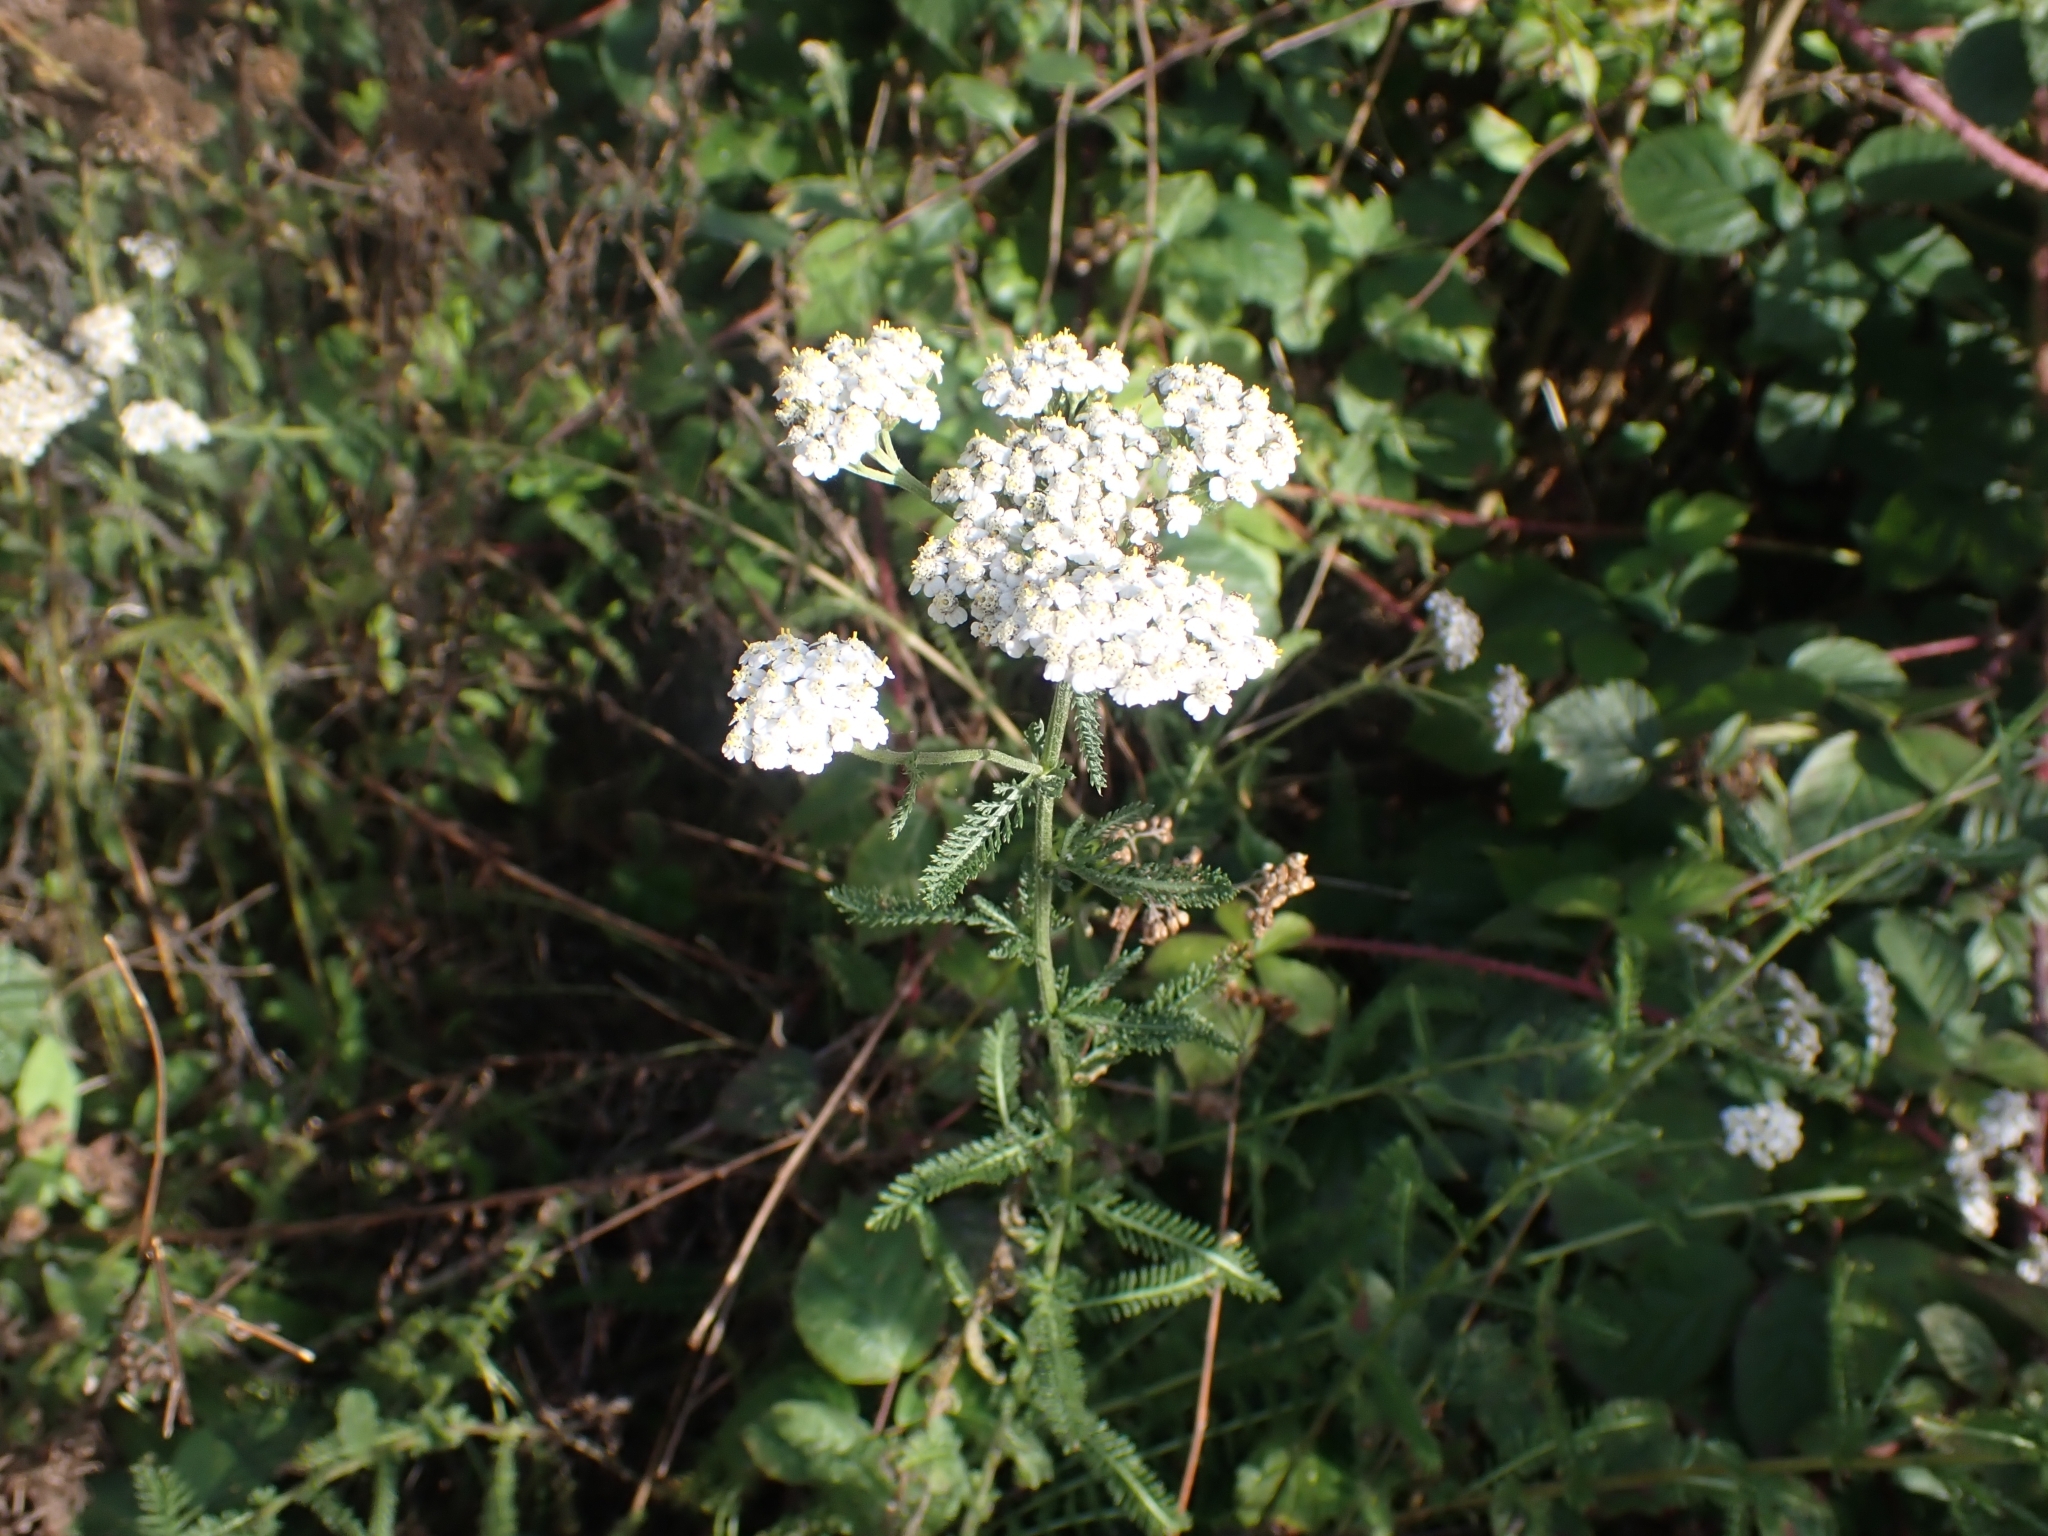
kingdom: Plantae
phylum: Tracheophyta
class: Magnoliopsida
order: Asterales
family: Asteraceae
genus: Achillea
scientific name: Achillea millefolium
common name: Yarrow
